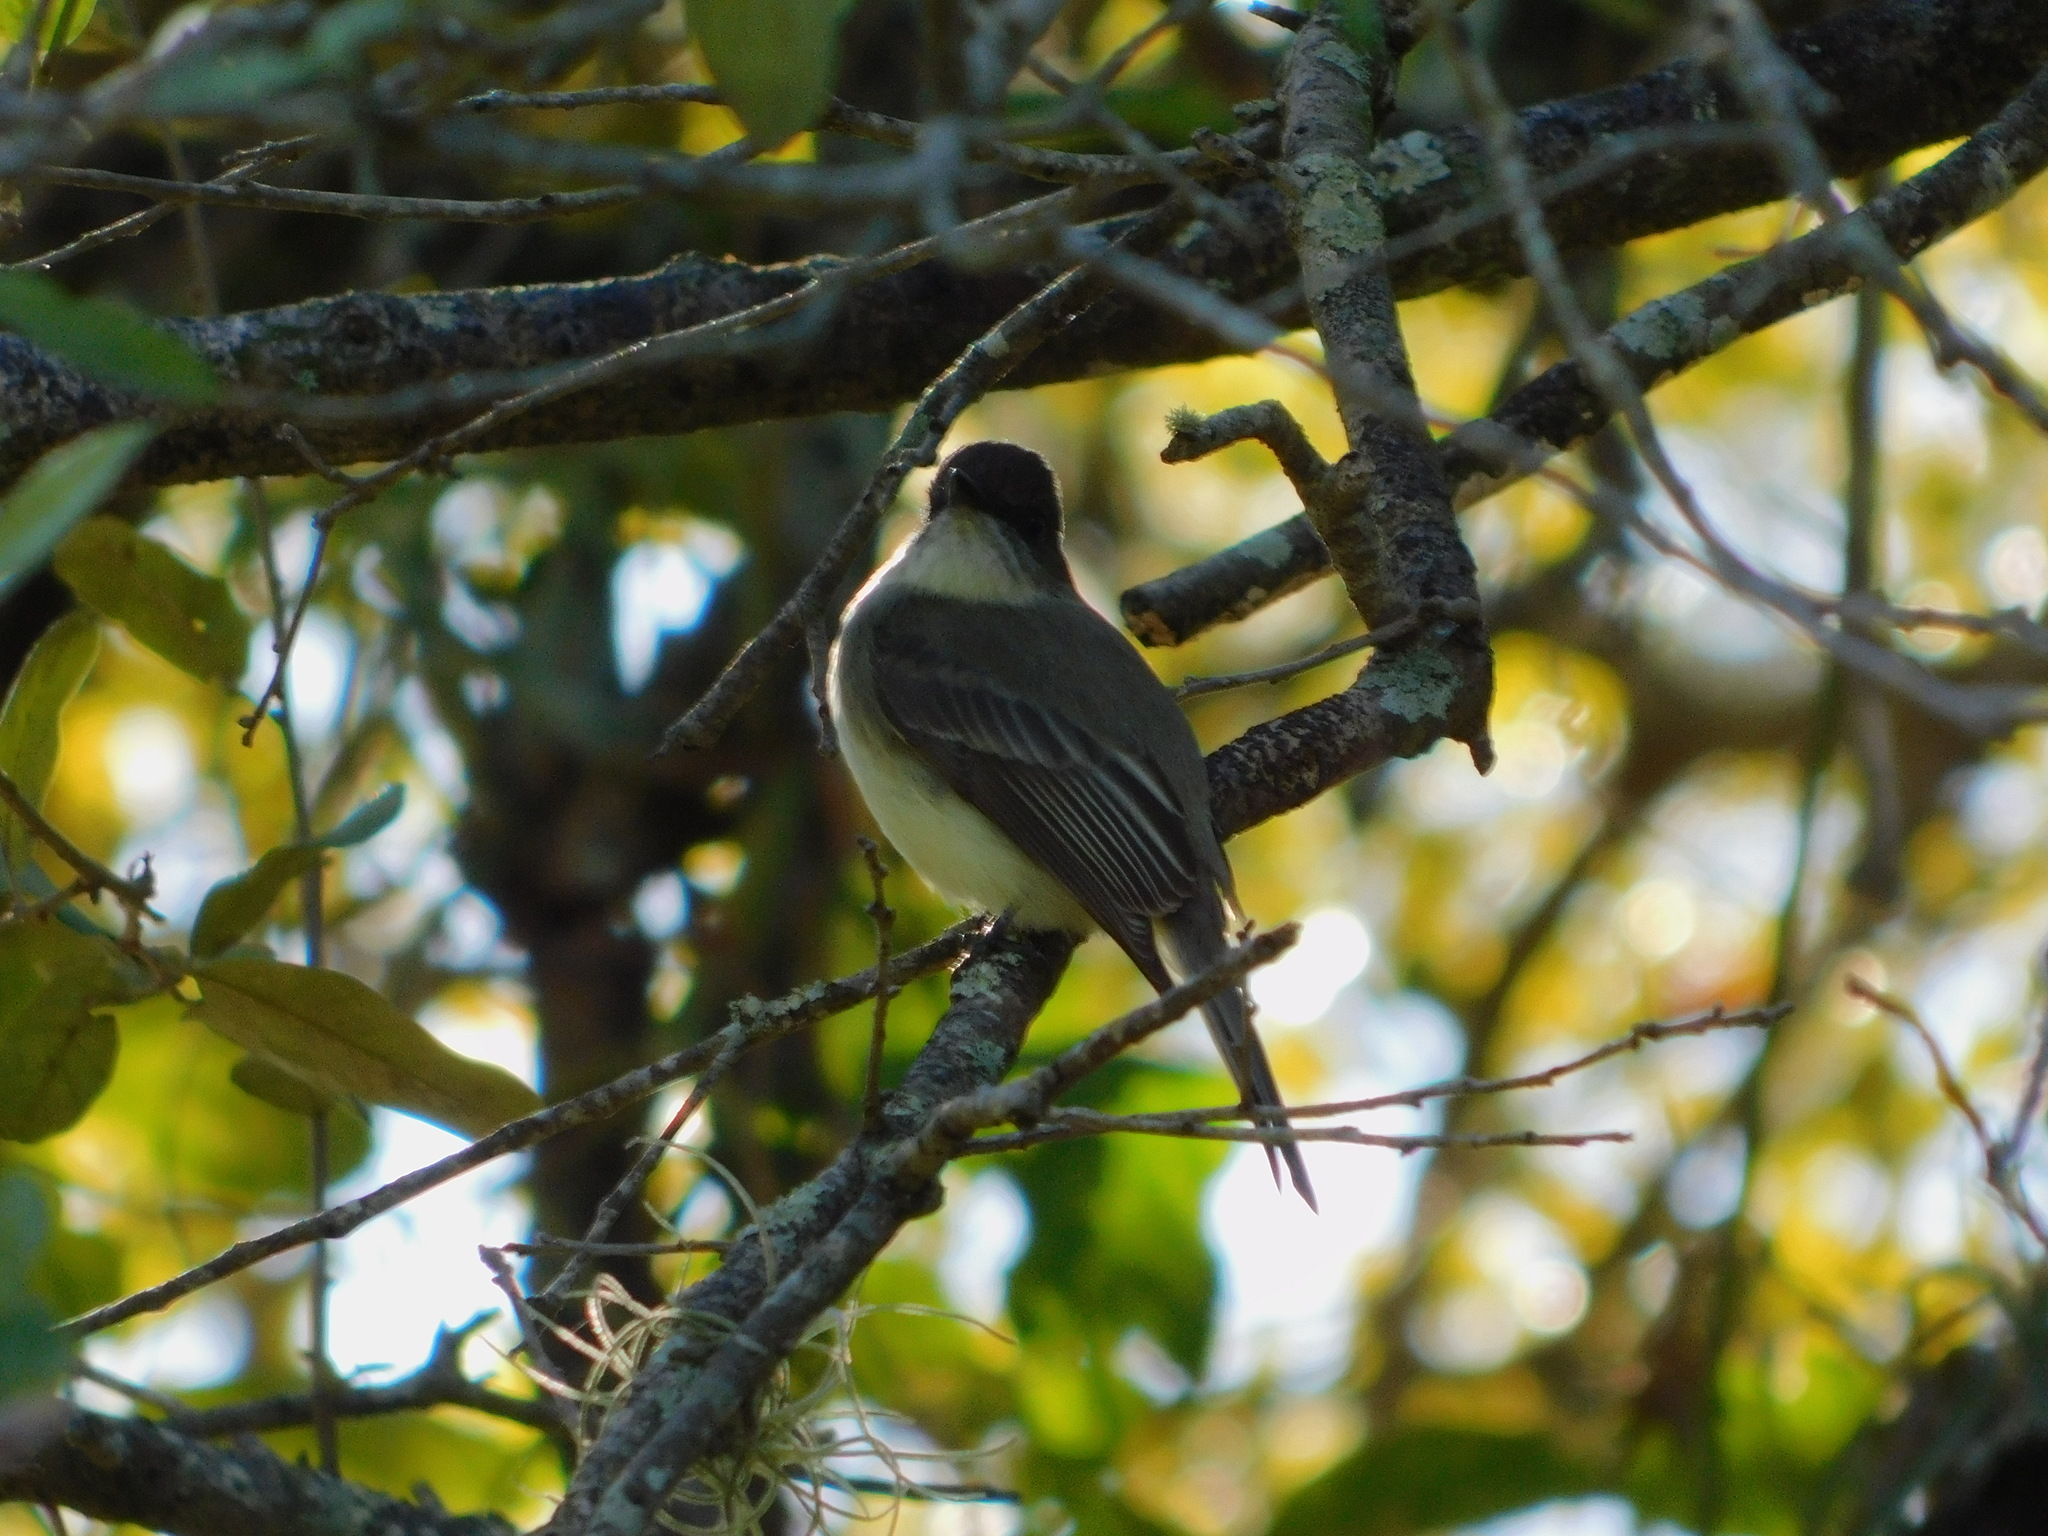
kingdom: Animalia
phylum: Chordata
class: Aves
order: Passeriformes
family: Tyrannidae
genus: Sayornis
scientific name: Sayornis phoebe
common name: Eastern phoebe
